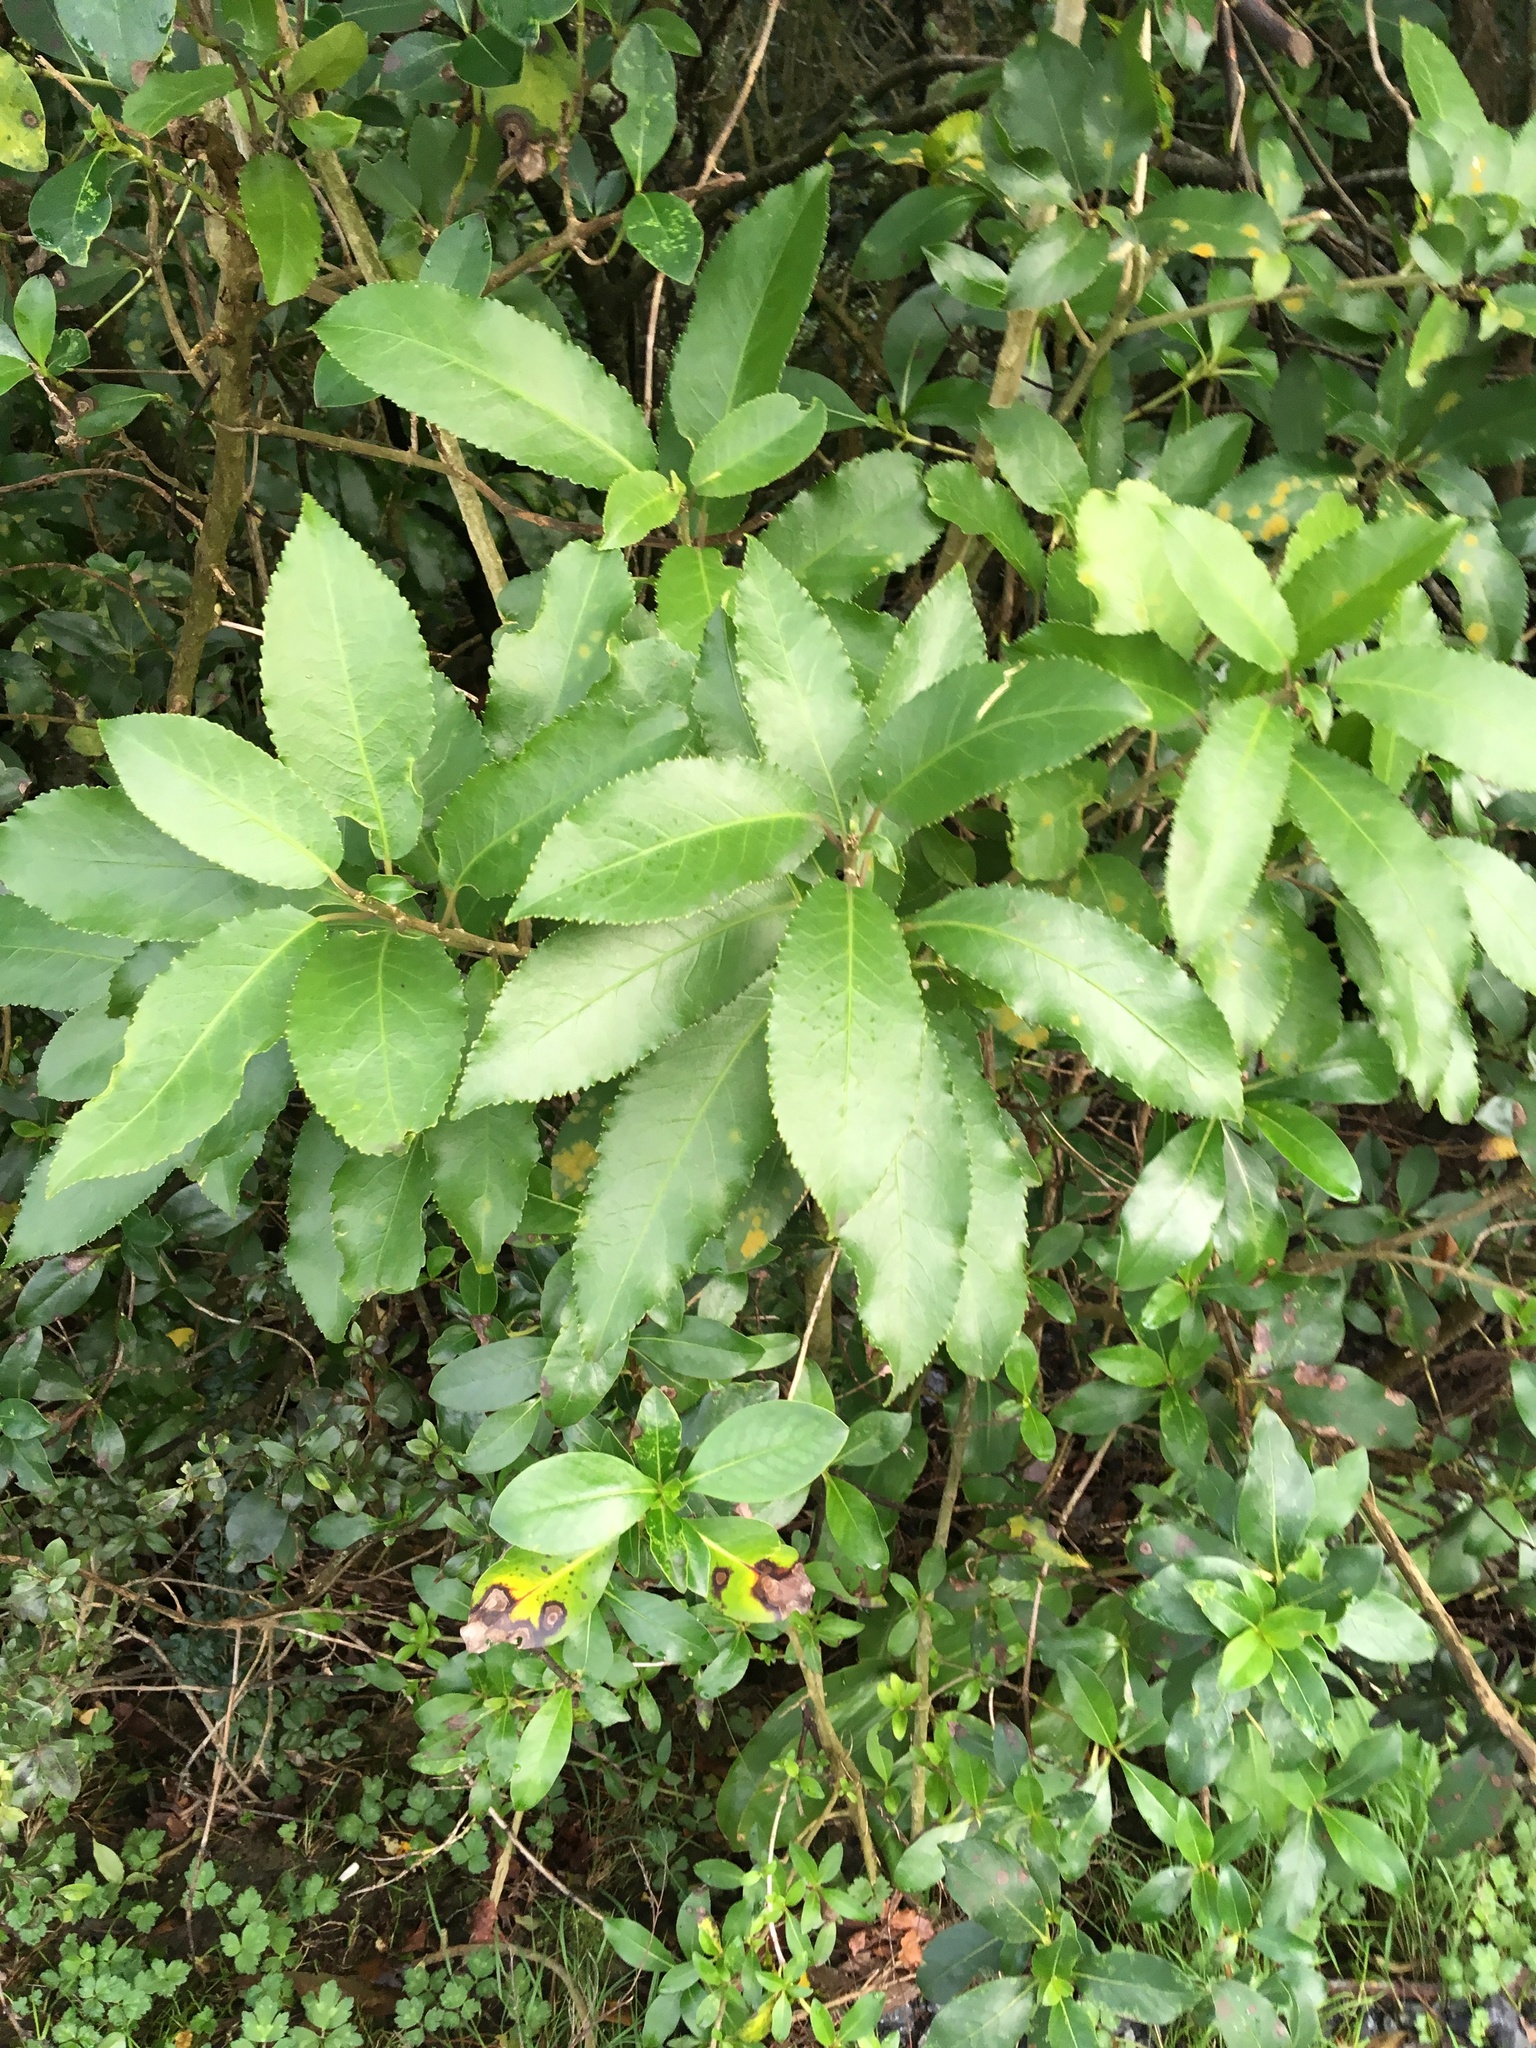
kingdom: Plantae
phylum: Tracheophyta
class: Magnoliopsida
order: Malpighiales
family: Violaceae
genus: Melicytus
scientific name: Melicytus ramiflorus
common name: Mahoe
